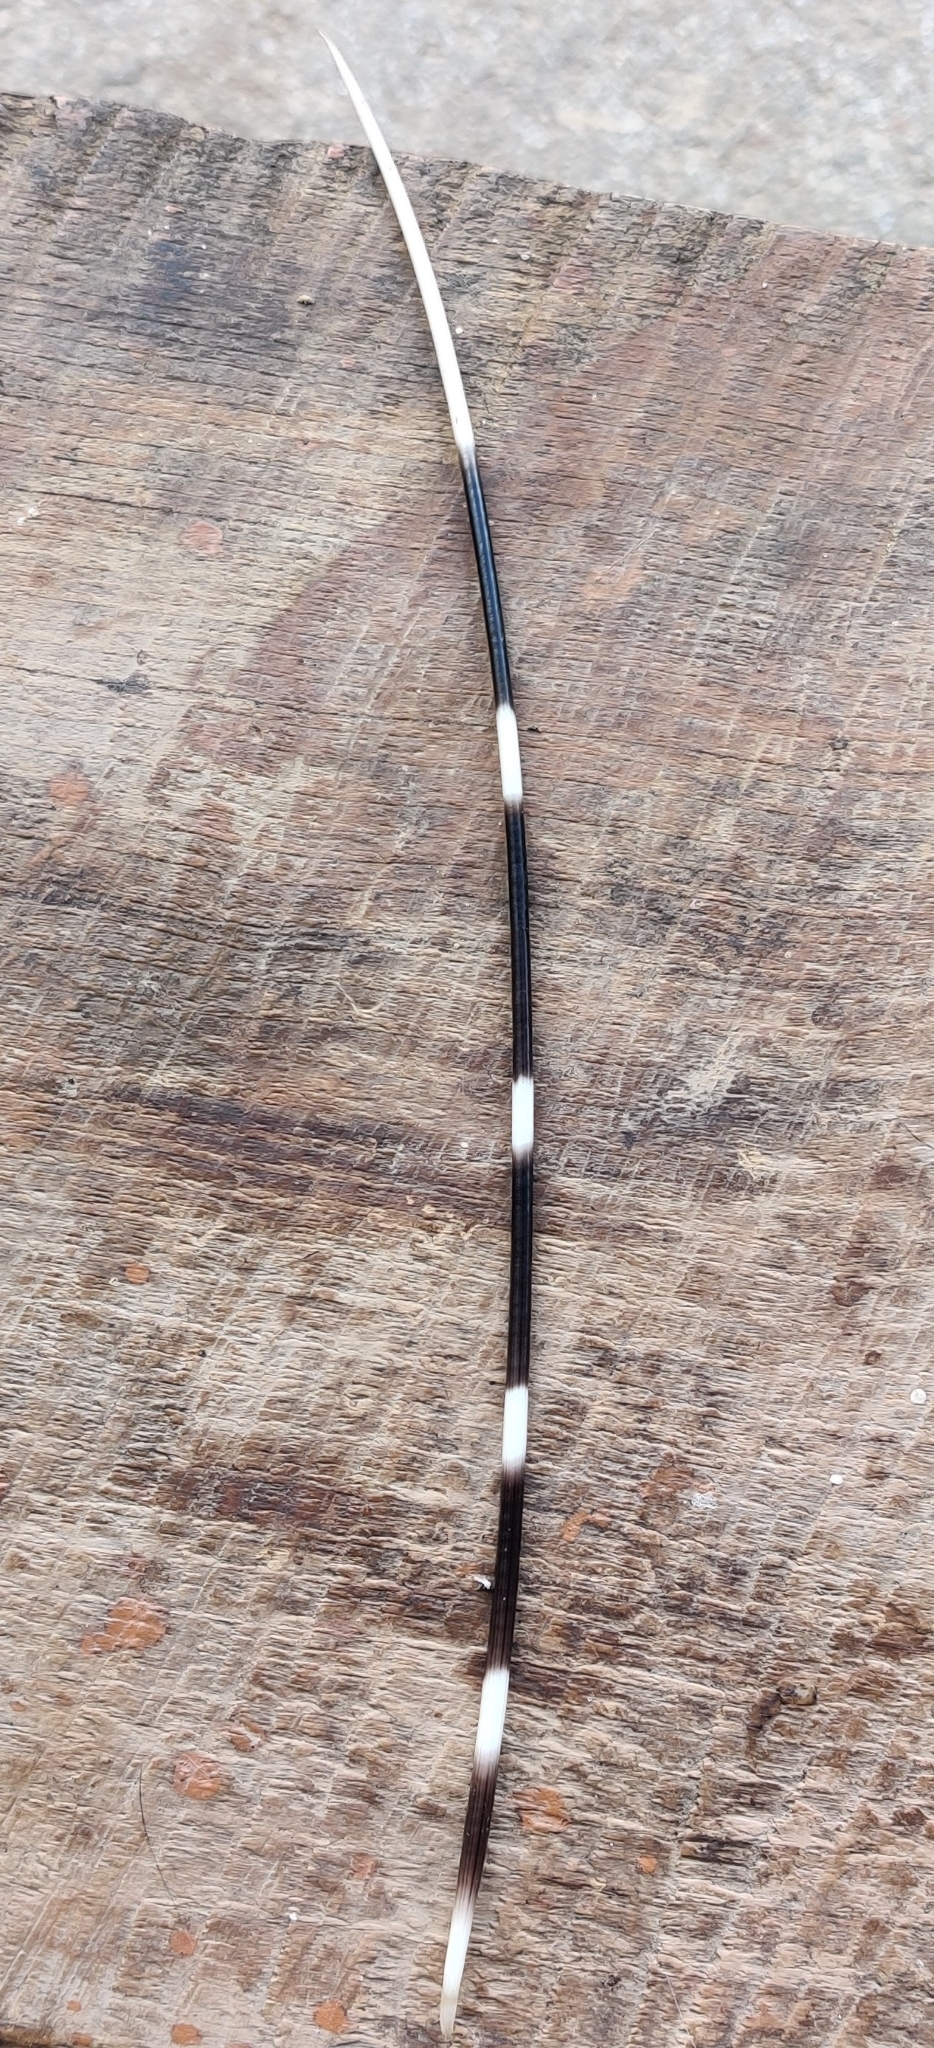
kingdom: Animalia
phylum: Chordata
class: Mammalia
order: Rodentia
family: Hystricidae
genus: Hystrix
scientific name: Hystrix indica
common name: Indian crested porcupine
